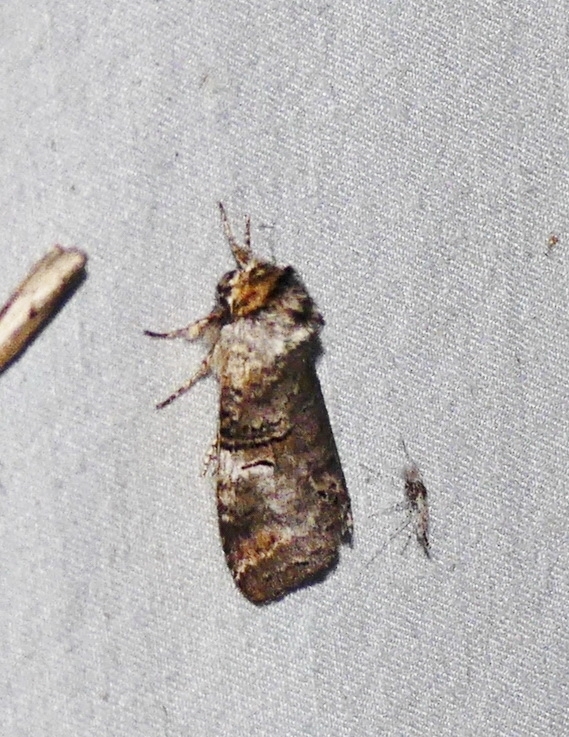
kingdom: Animalia
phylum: Arthropoda
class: Insecta
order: Lepidoptera
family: Notodontidae
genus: Ellida
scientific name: Ellida caniplaga
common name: Linden prominent
